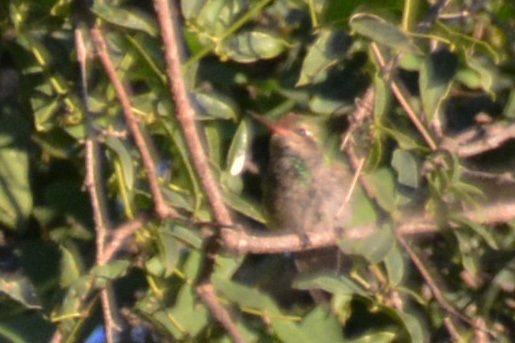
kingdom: Animalia
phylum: Chordata
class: Aves
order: Apodiformes
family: Trochilidae
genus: Chlorostilbon
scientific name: Chlorostilbon lucidus
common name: Glittering-bellied emerald
